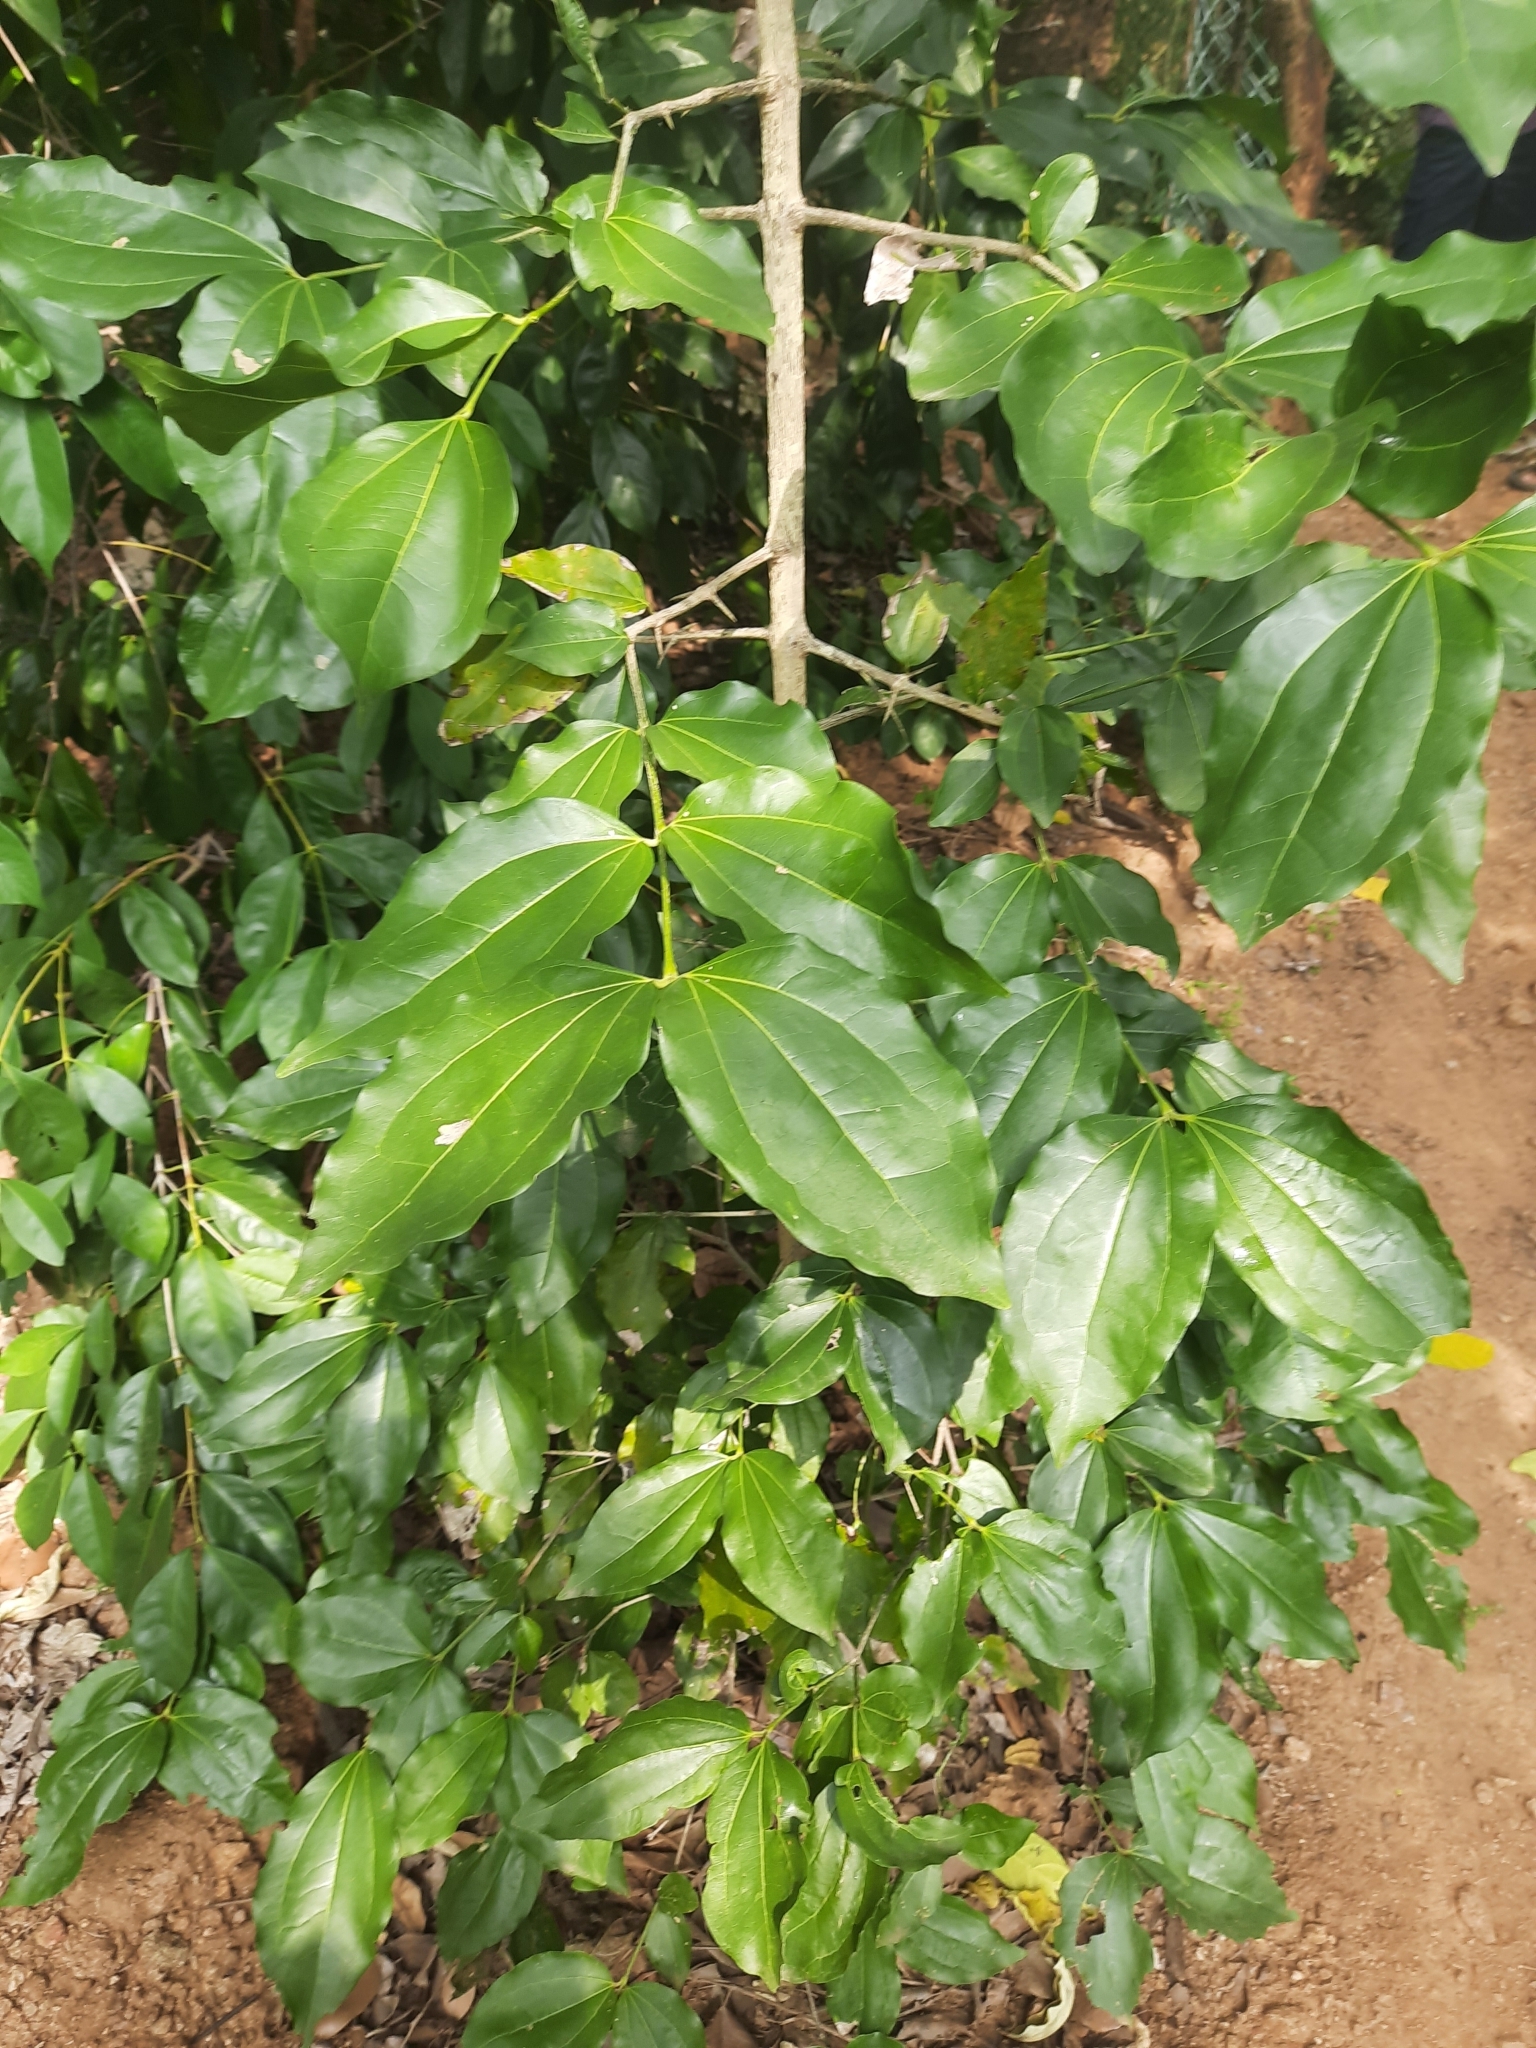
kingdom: Plantae
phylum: Tracheophyta
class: Magnoliopsida
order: Gentianales
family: Loganiaceae
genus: Strychnos
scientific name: Strychnos nux-vomica
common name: Strychninetree
